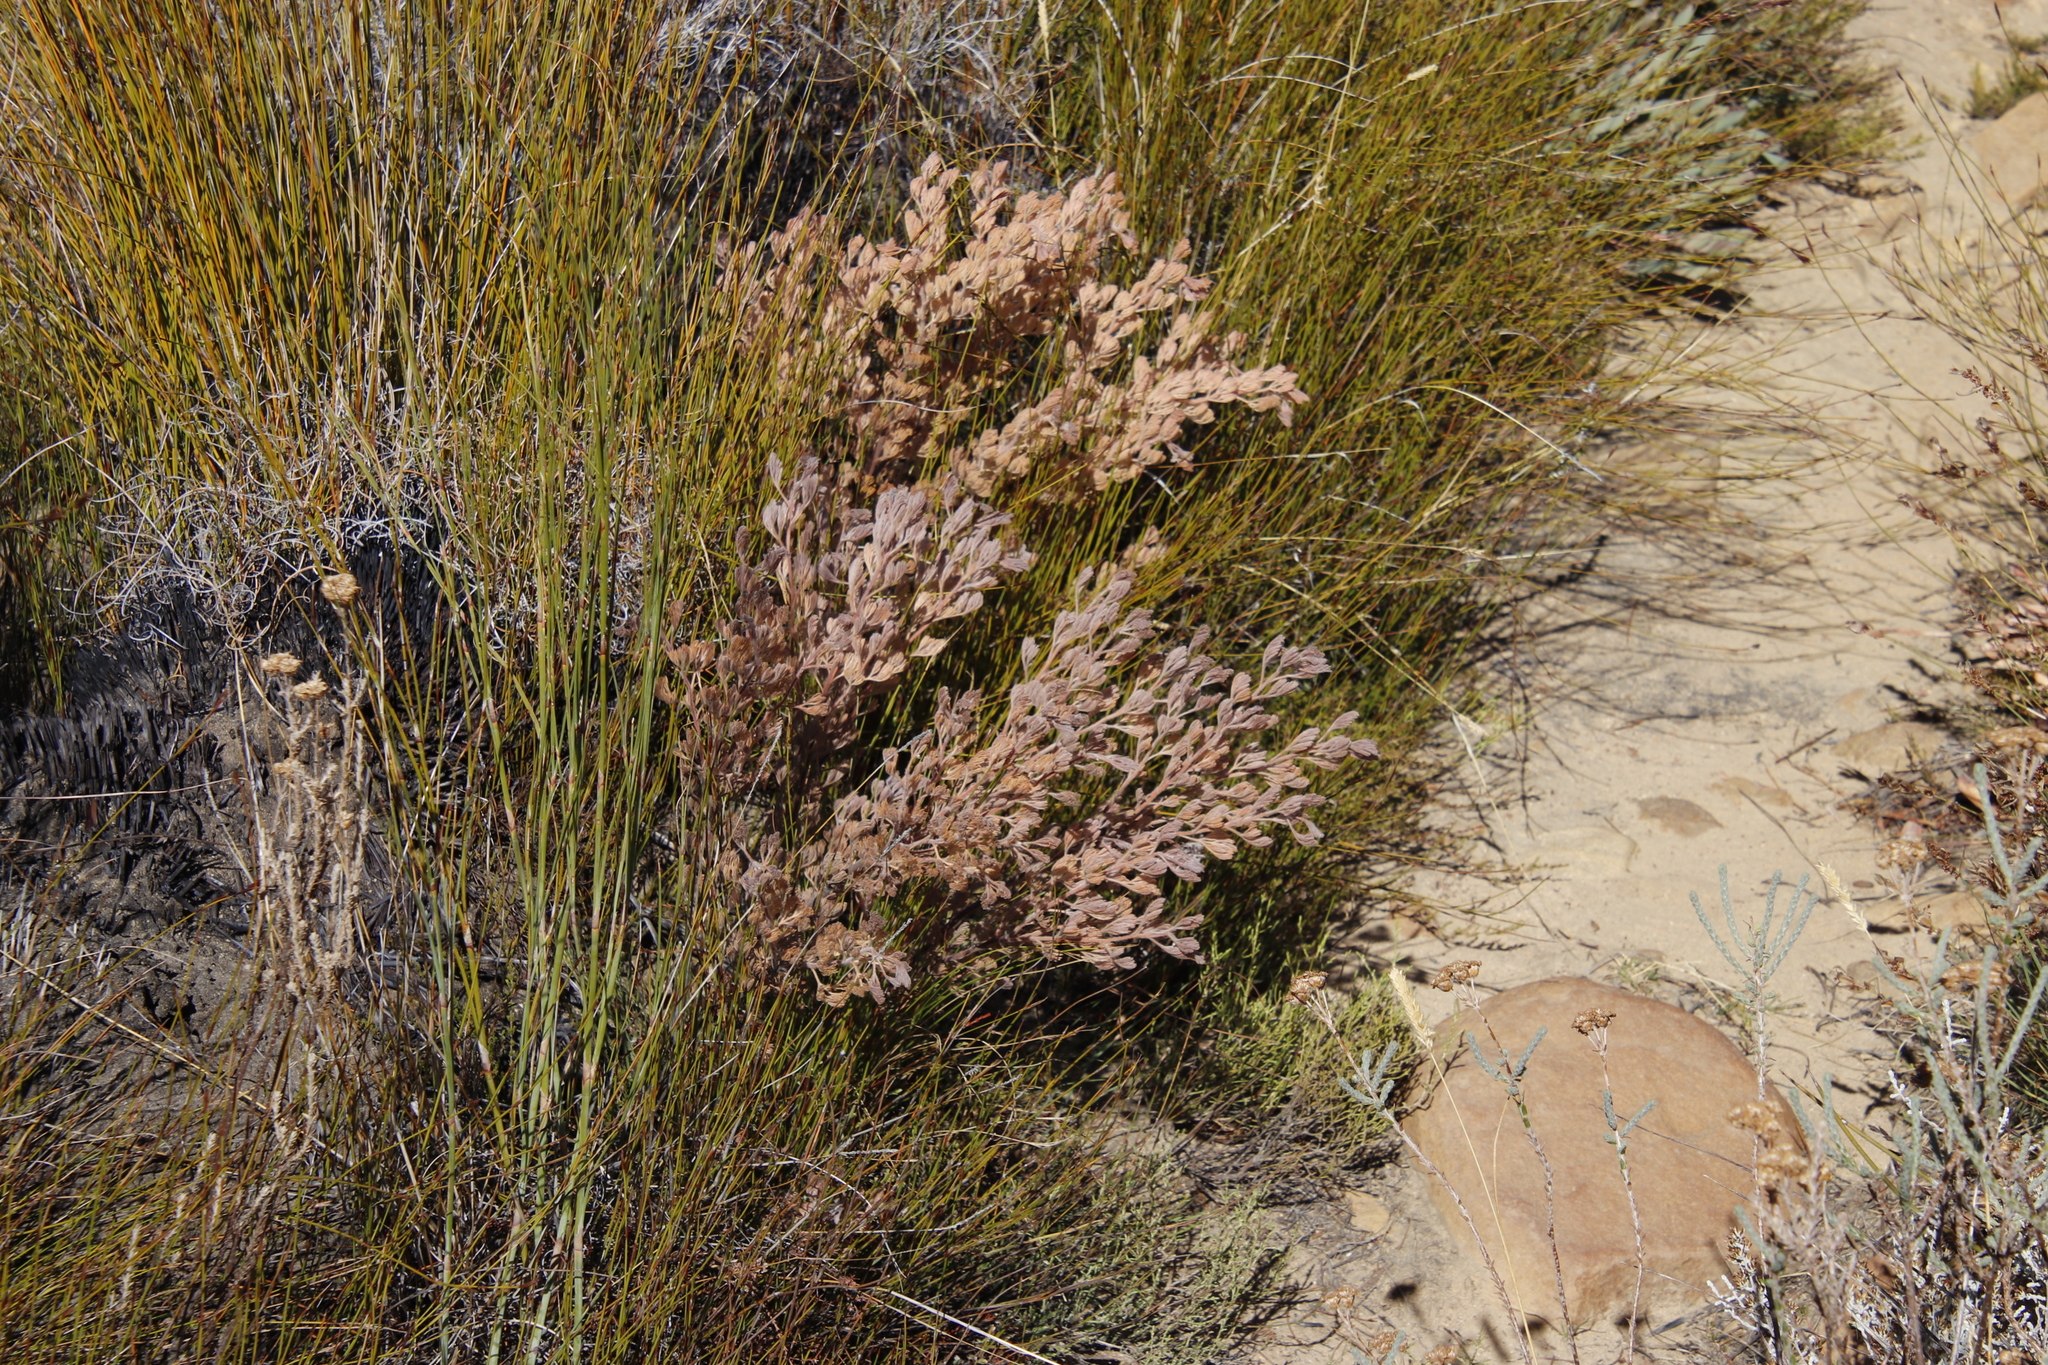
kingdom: Plantae
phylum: Tracheophyta
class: Magnoliopsida
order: Proteales
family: Proteaceae
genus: Serruria
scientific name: Serruria aitonii
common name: Marshmallow spiderhead
